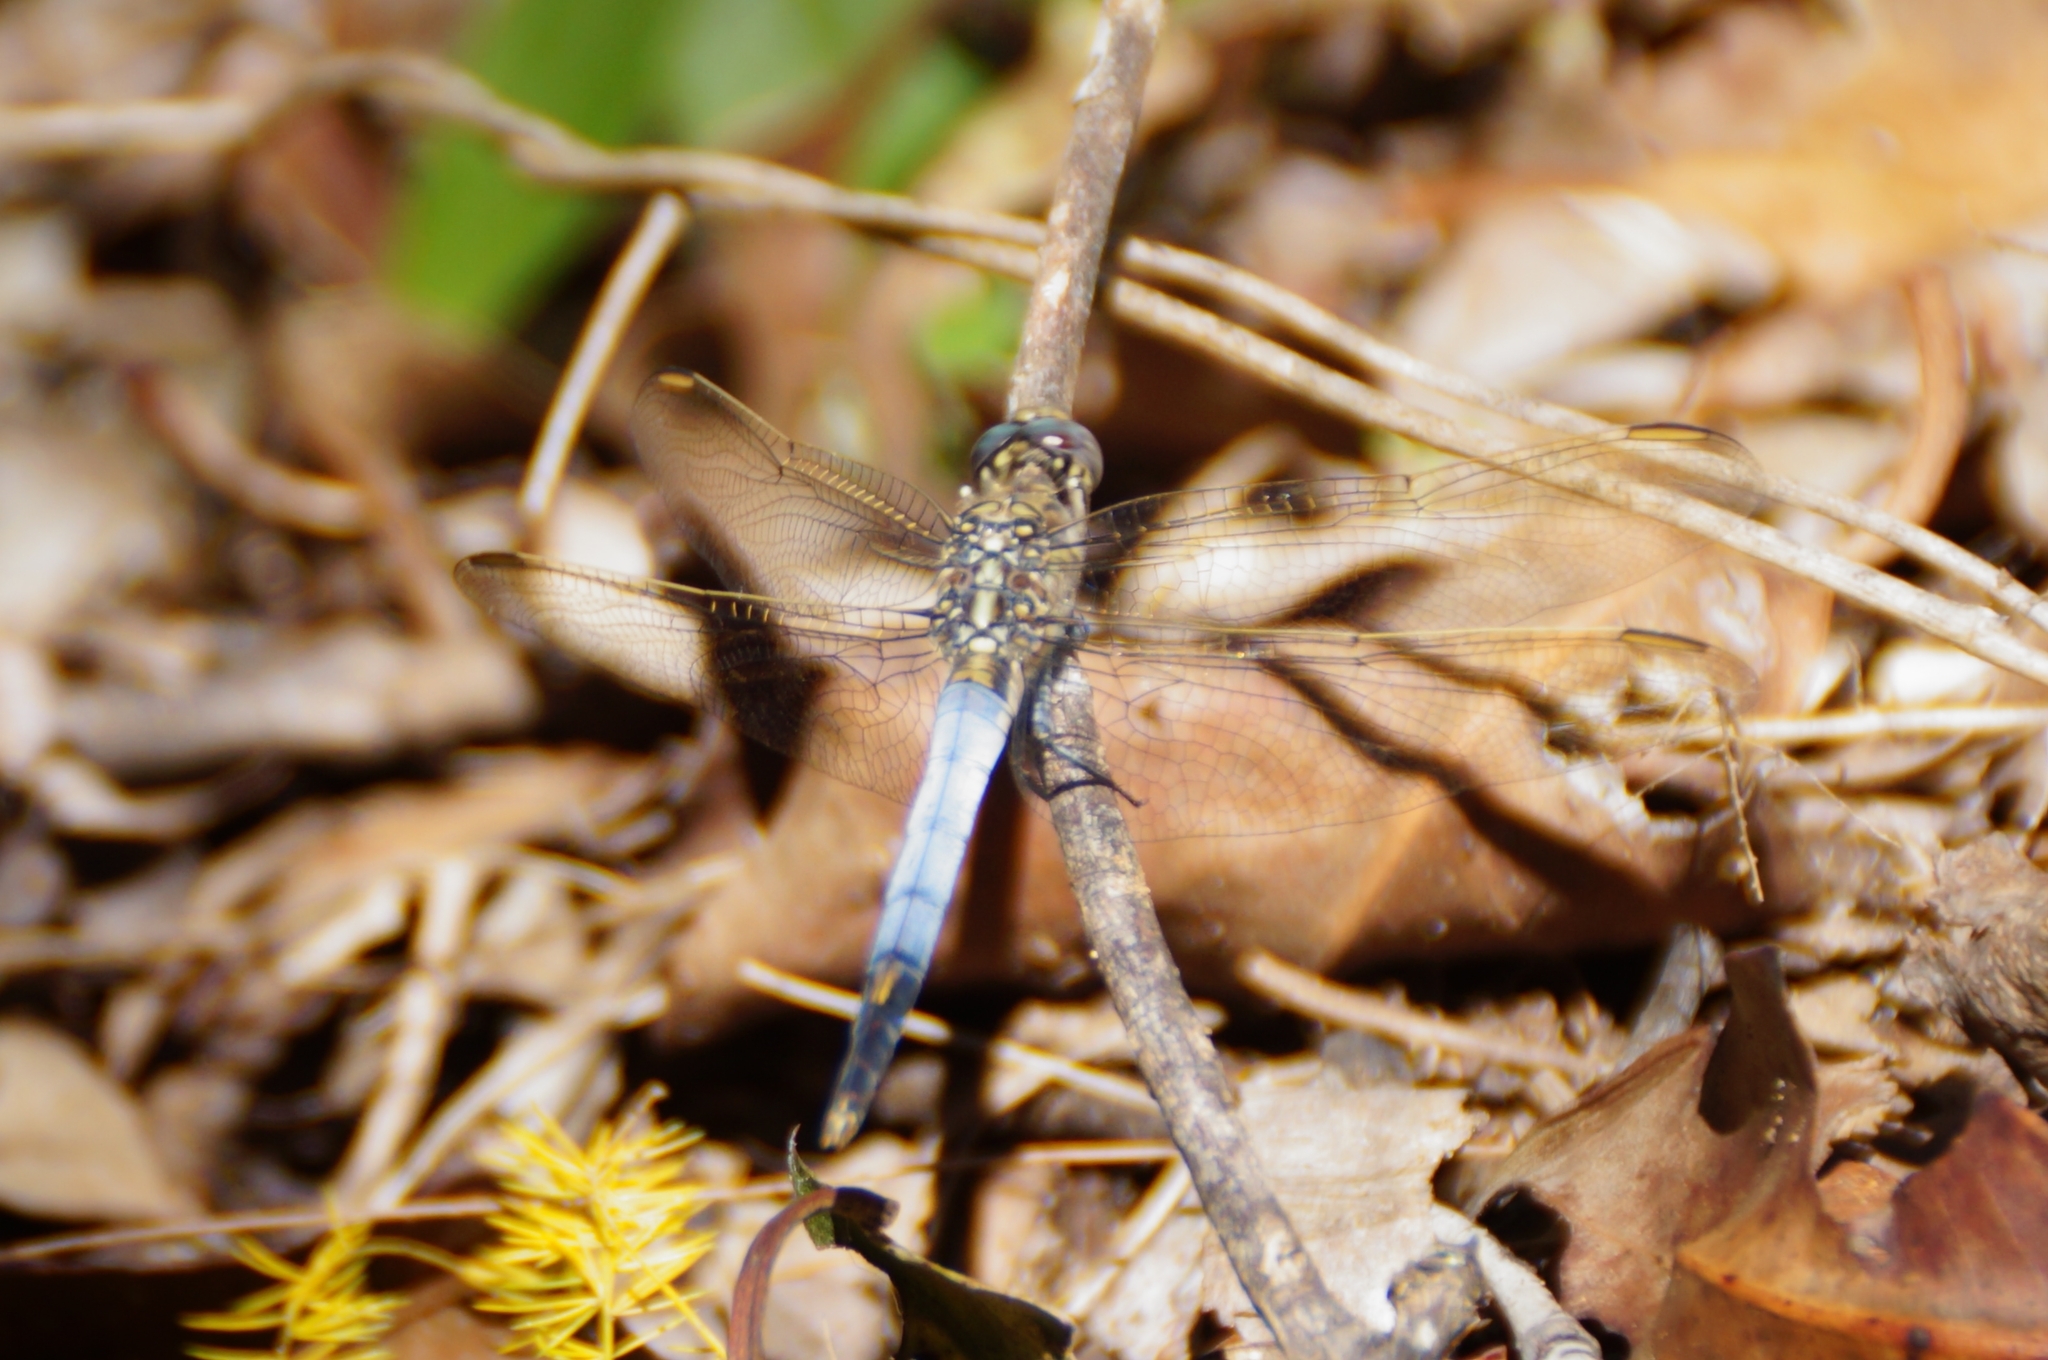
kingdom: Animalia
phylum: Arthropoda
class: Insecta
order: Odonata
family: Libellulidae
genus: Orthetrum
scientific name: Orthetrum caledonicum
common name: Blue skimmer
